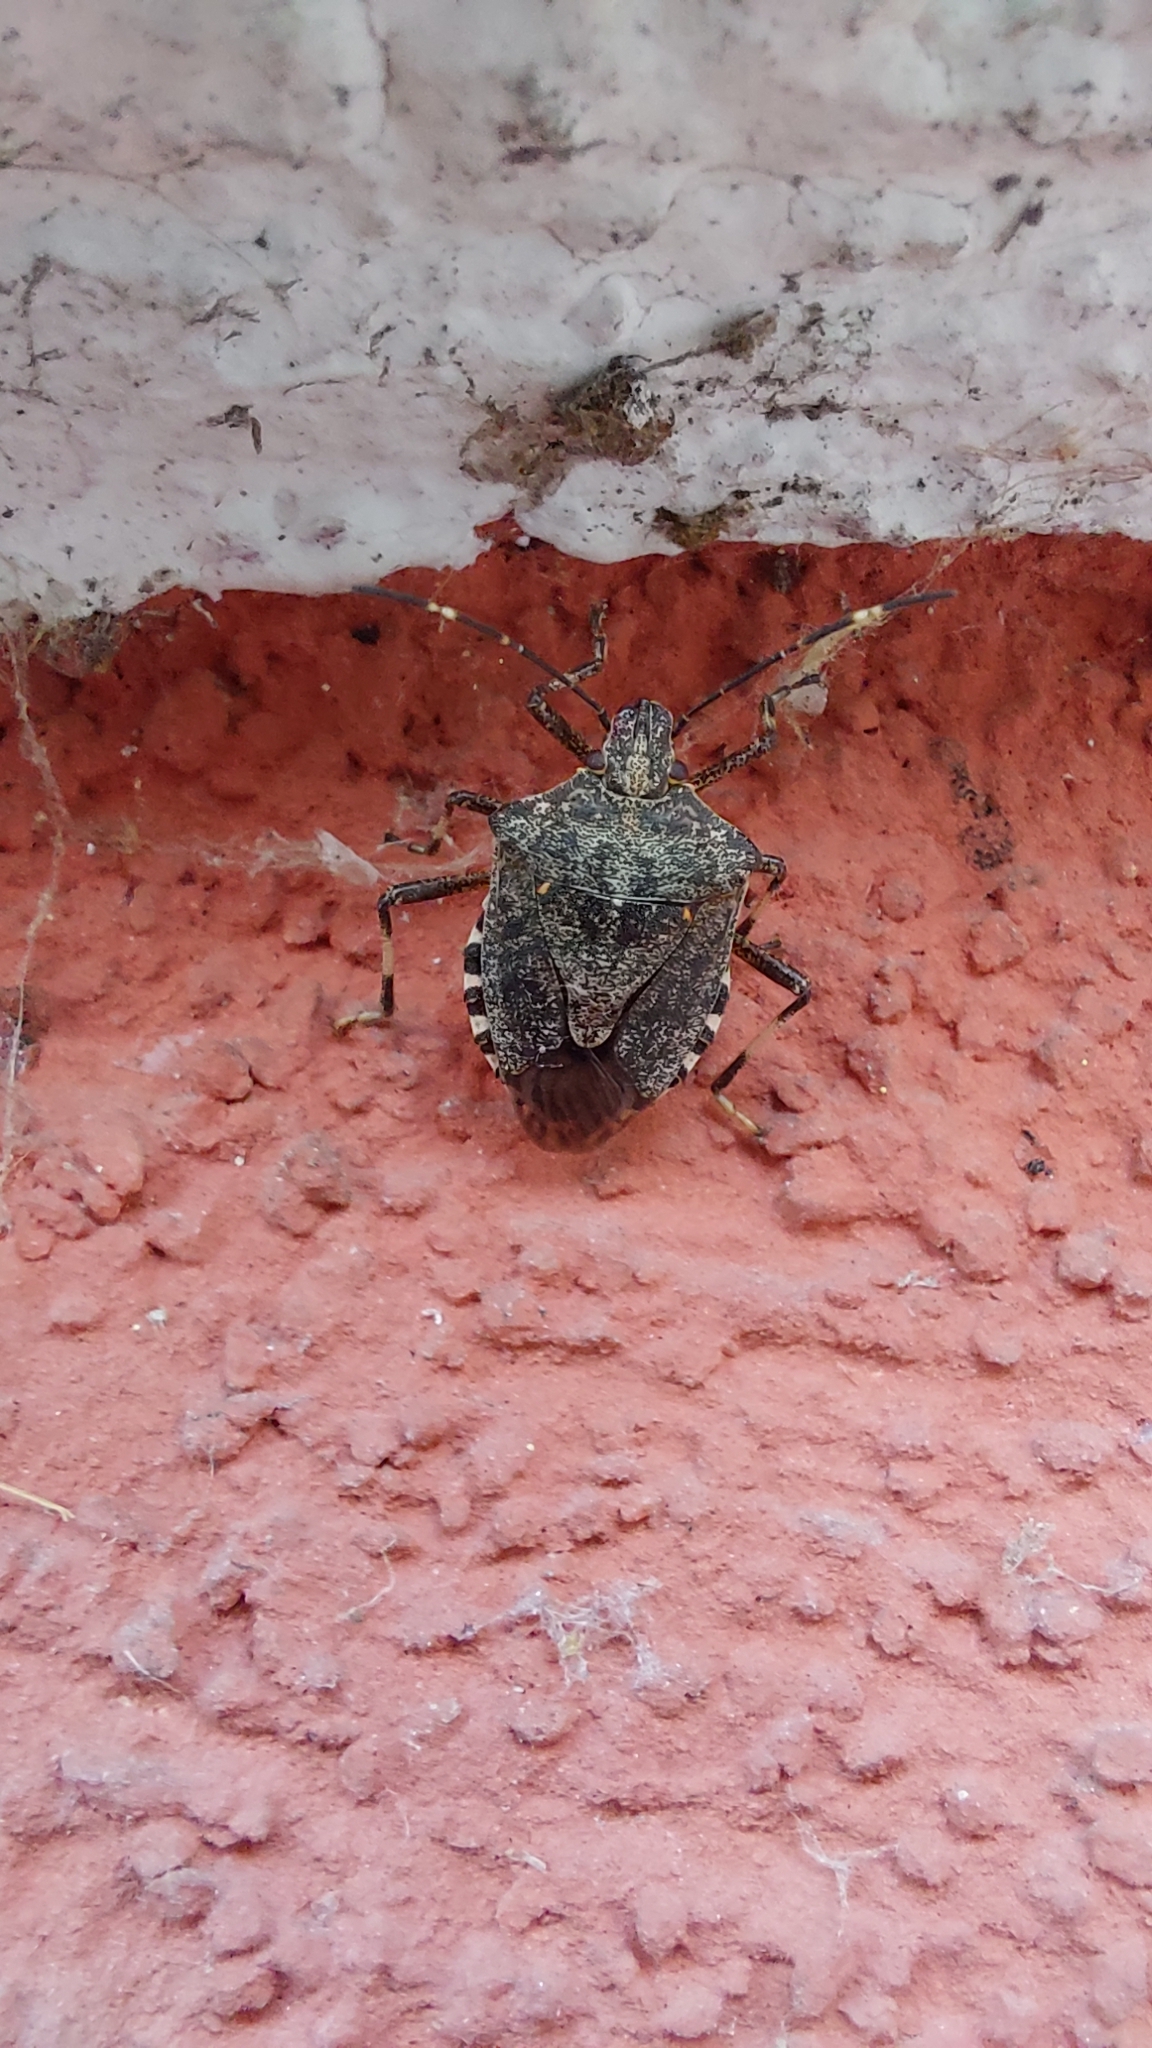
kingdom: Animalia
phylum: Arthropoda
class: Insecta
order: Hemiptera
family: Pentatomidae
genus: Halyomorpha
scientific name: Halyomorpha halys
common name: Brown marmorated stink bug
